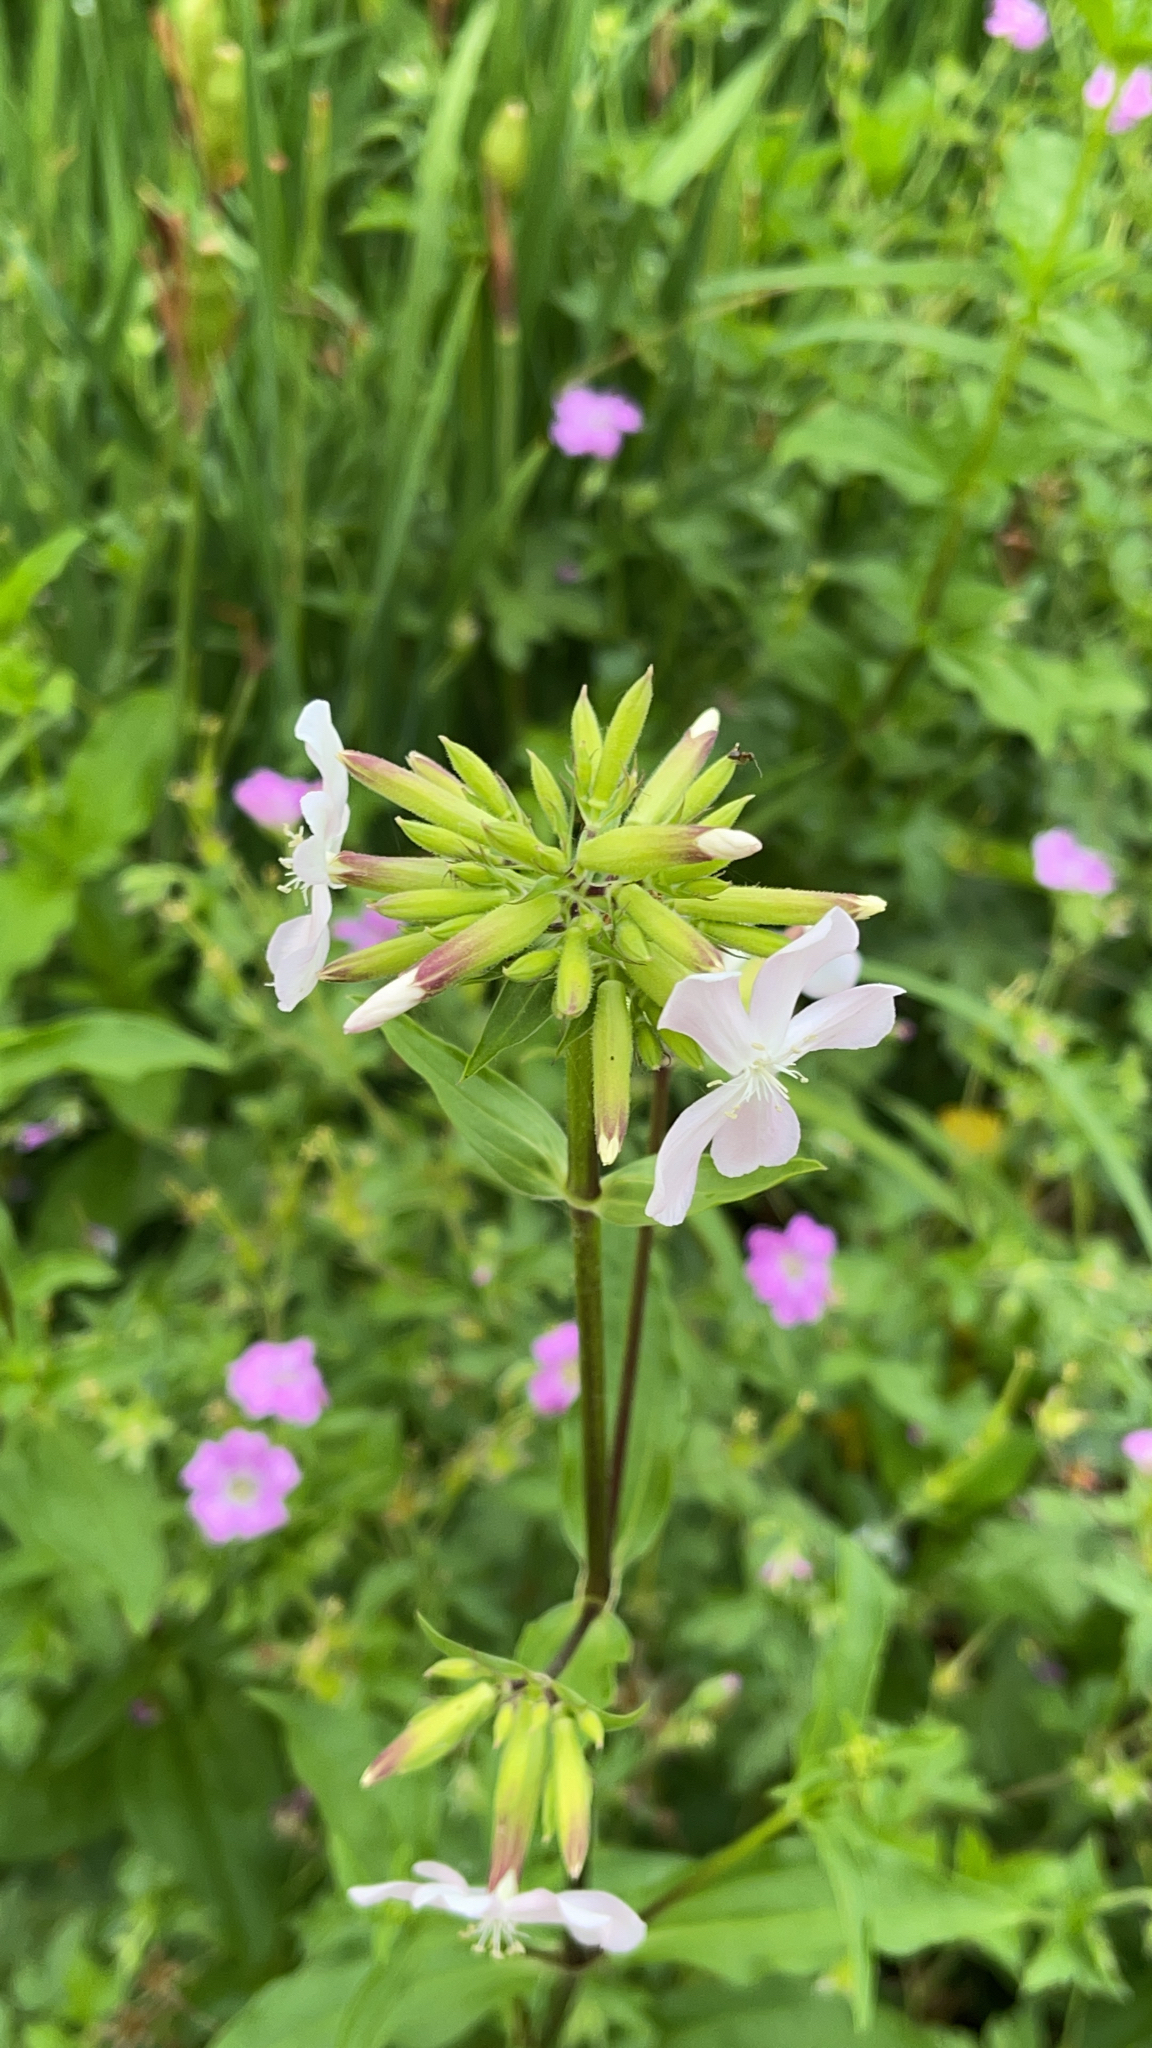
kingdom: Plantae
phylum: Tracheophyta
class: Magnoliopsida
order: Caryophyllales
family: Caryophyllaceae
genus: Saponaria
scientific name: Saponaria officinalis
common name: Soapwort
